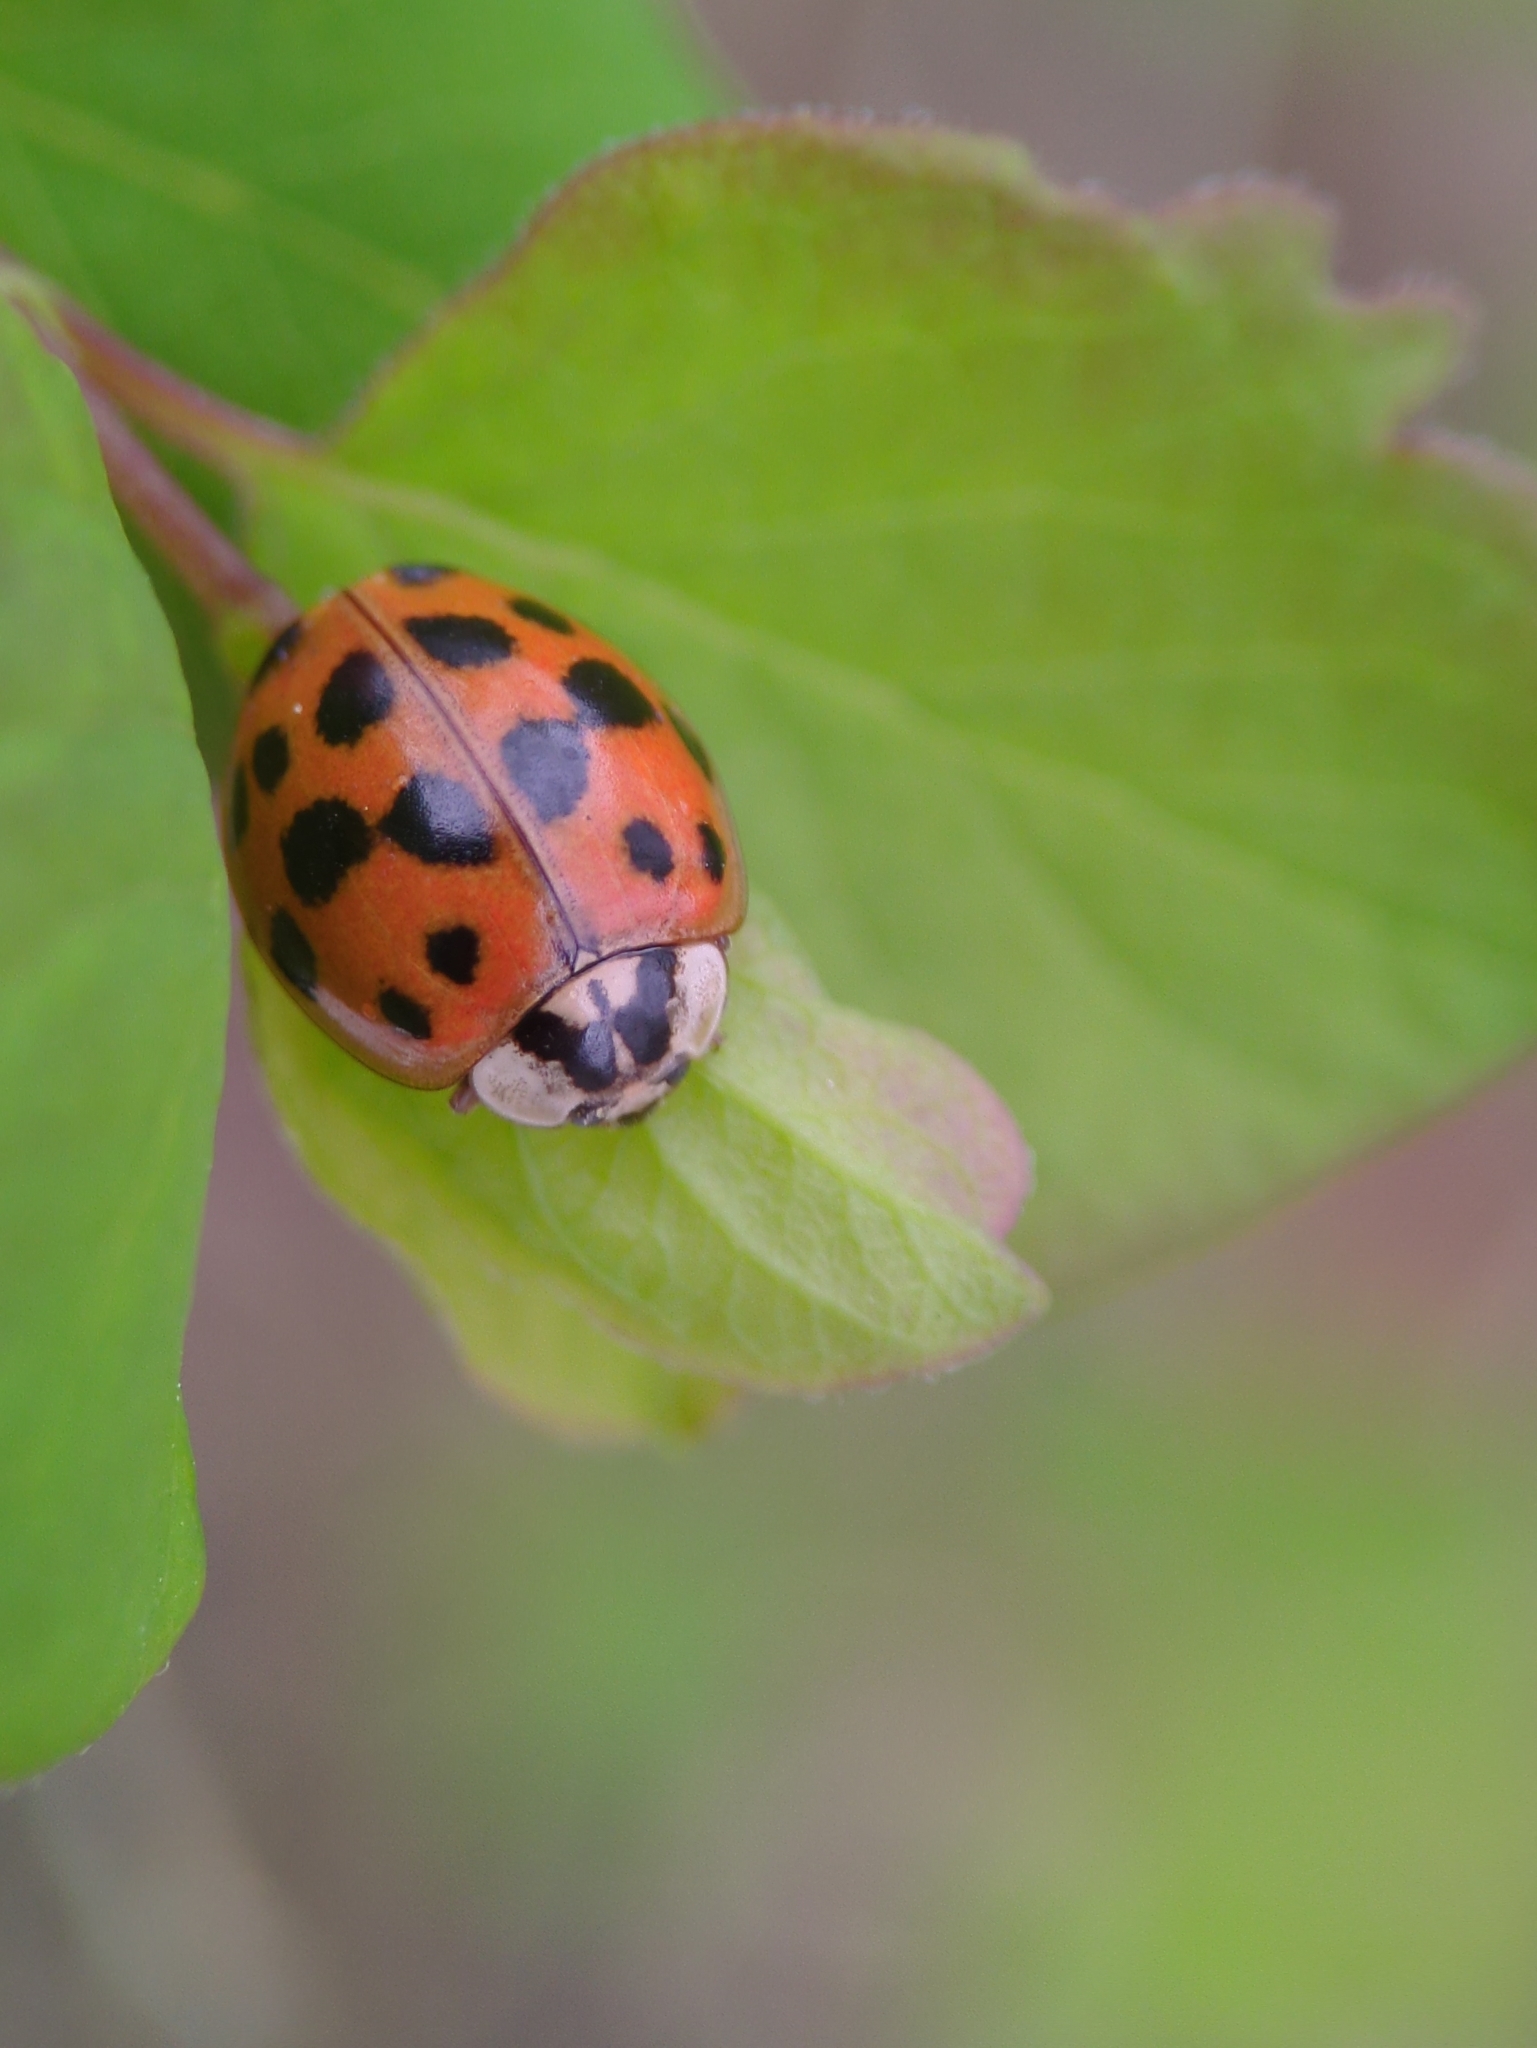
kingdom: Animalia
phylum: Arthropoda
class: Insecta
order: Coleoptera
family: Coccinellidae
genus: Harmonia
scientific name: Harmonia axyridis
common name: Harlequin ladybird
